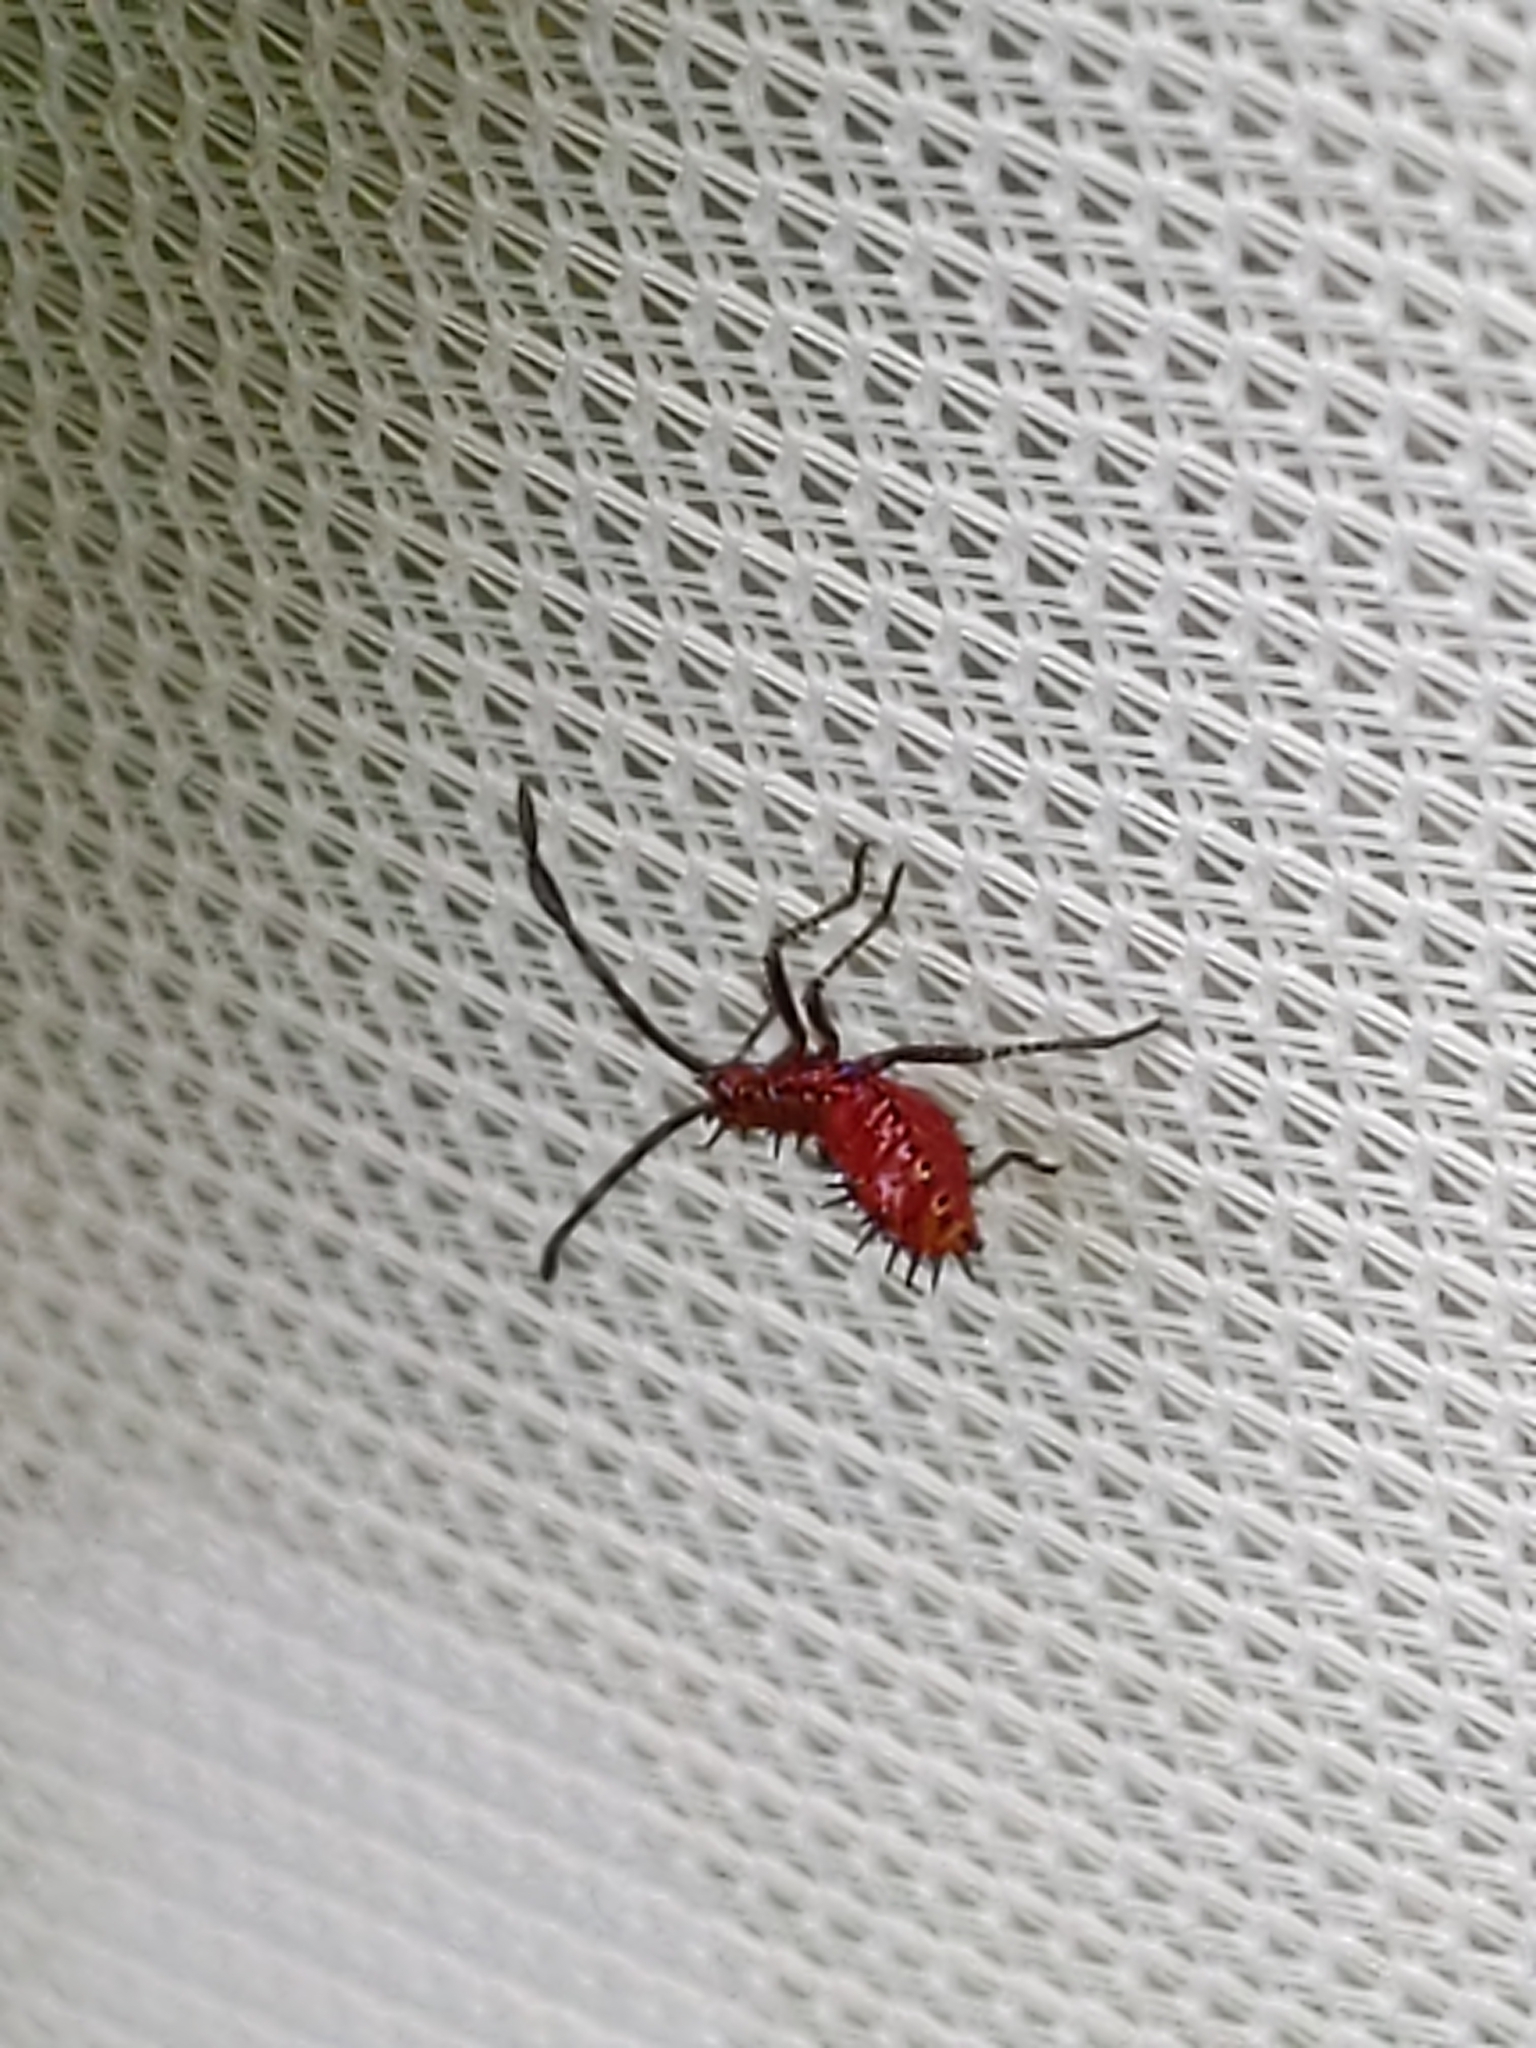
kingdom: Animalia
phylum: Arthropoda
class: Insecta
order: Hemiptera
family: Coreidae
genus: Euthochtha
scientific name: Euthochtha galeator
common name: Helmeted squash bug
